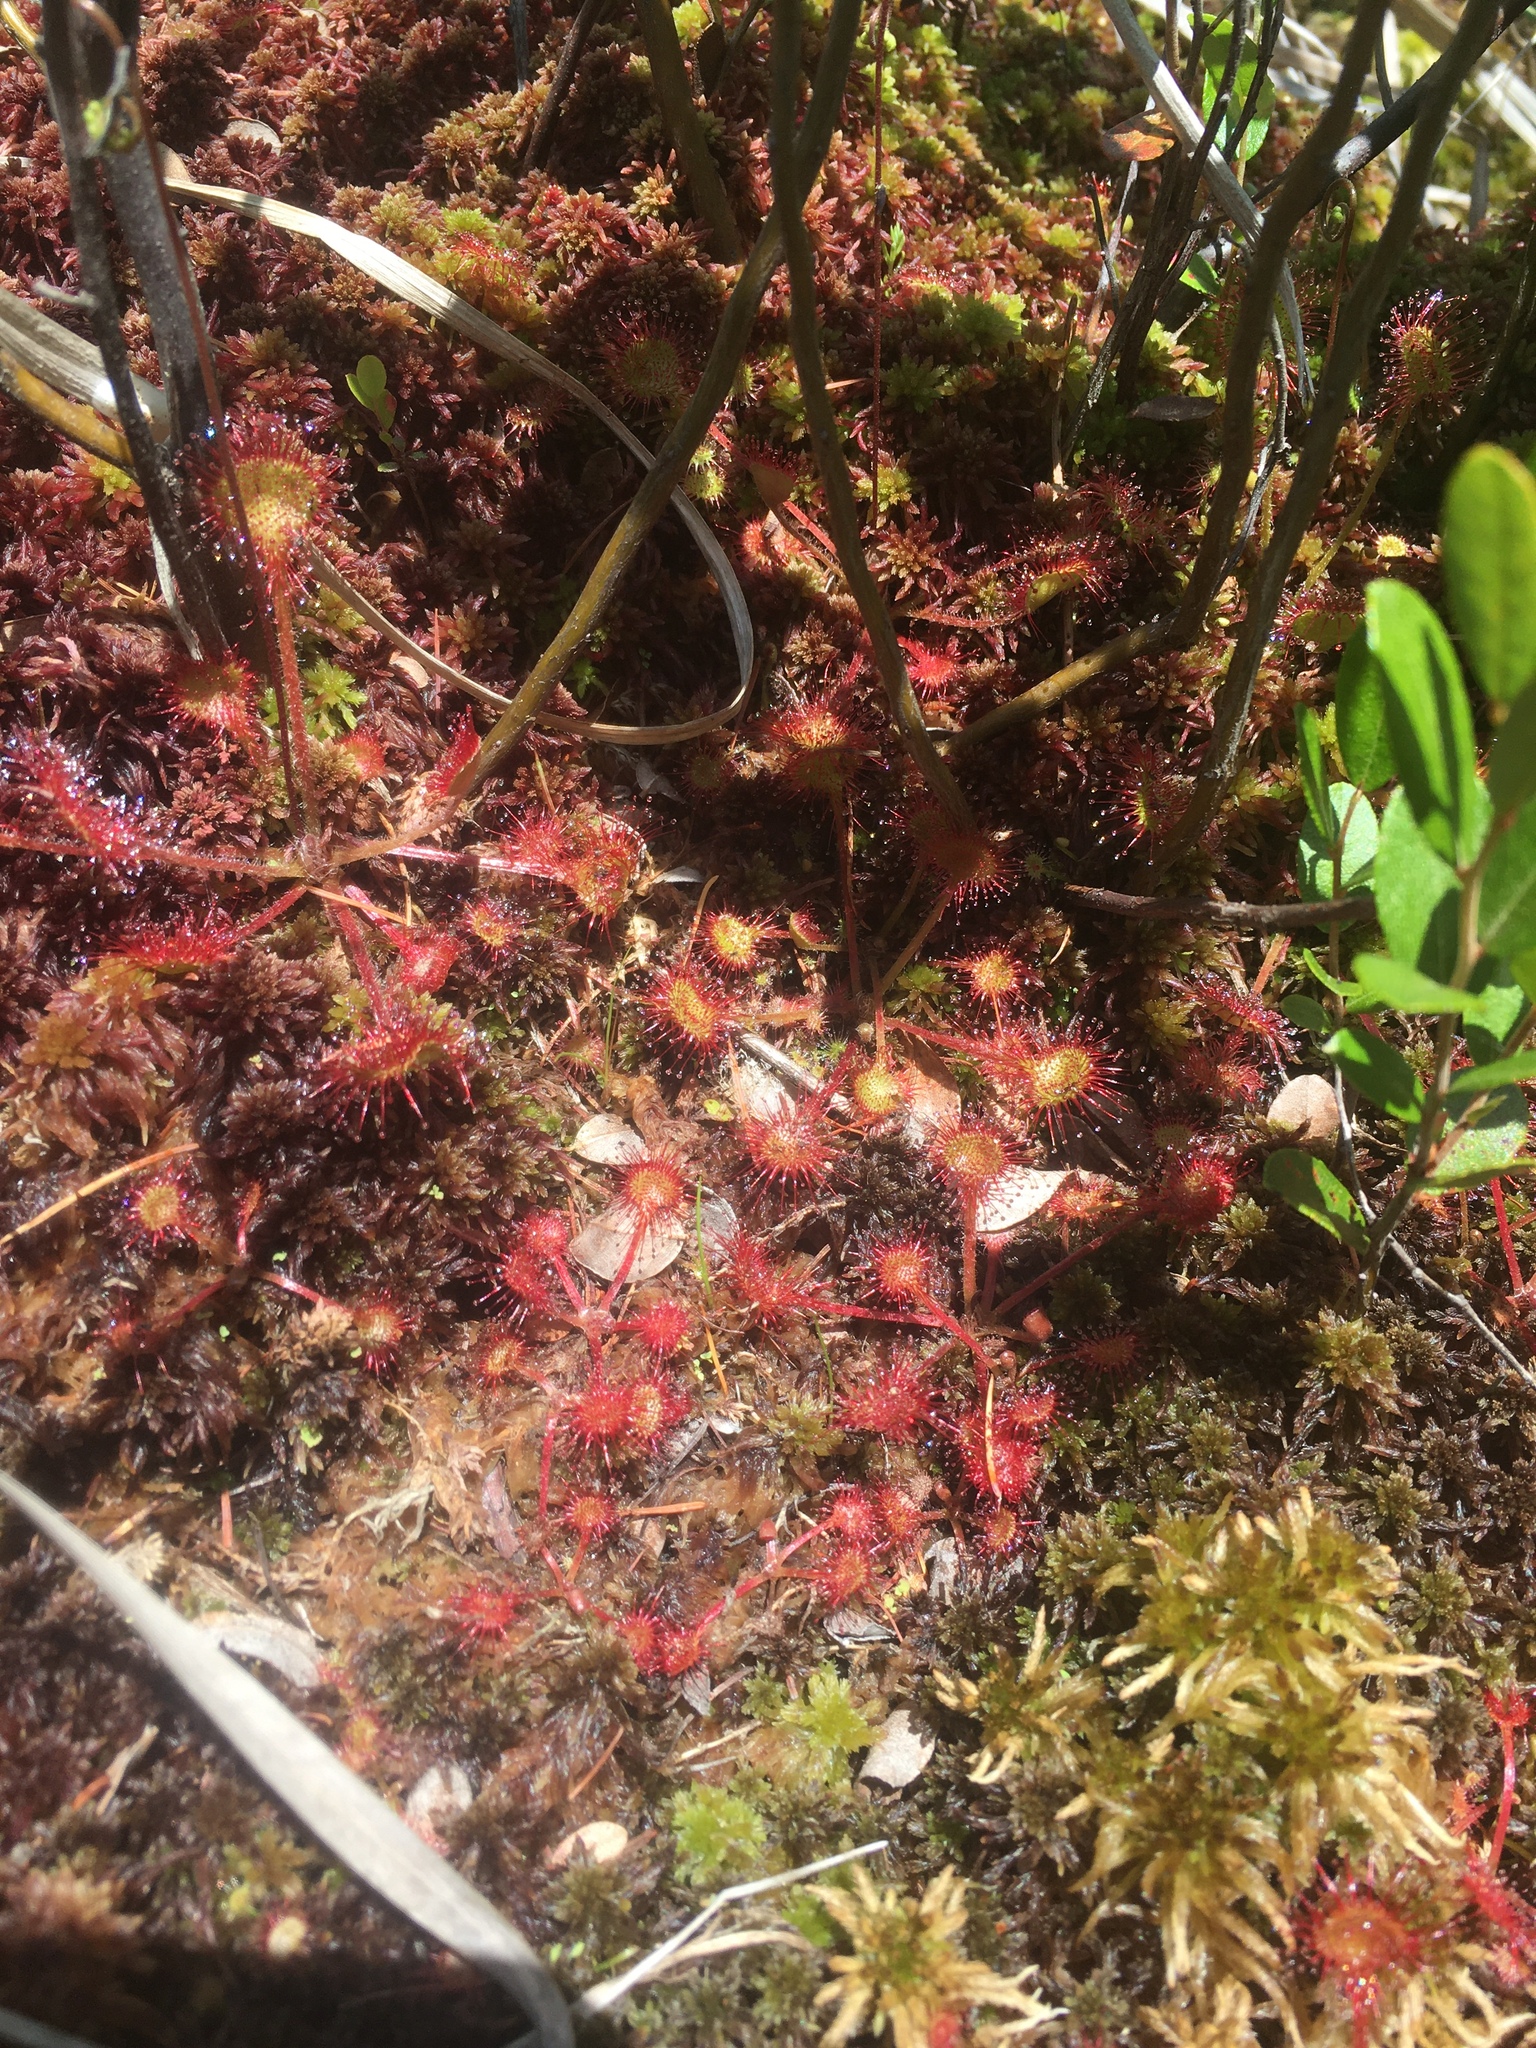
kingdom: Plantae
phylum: Tracheophyta
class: Magnoliopsida
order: Caryophyllales
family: Droseraceae
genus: Drosera
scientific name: Drosera rotundifolia
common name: Round-leaved sundew
